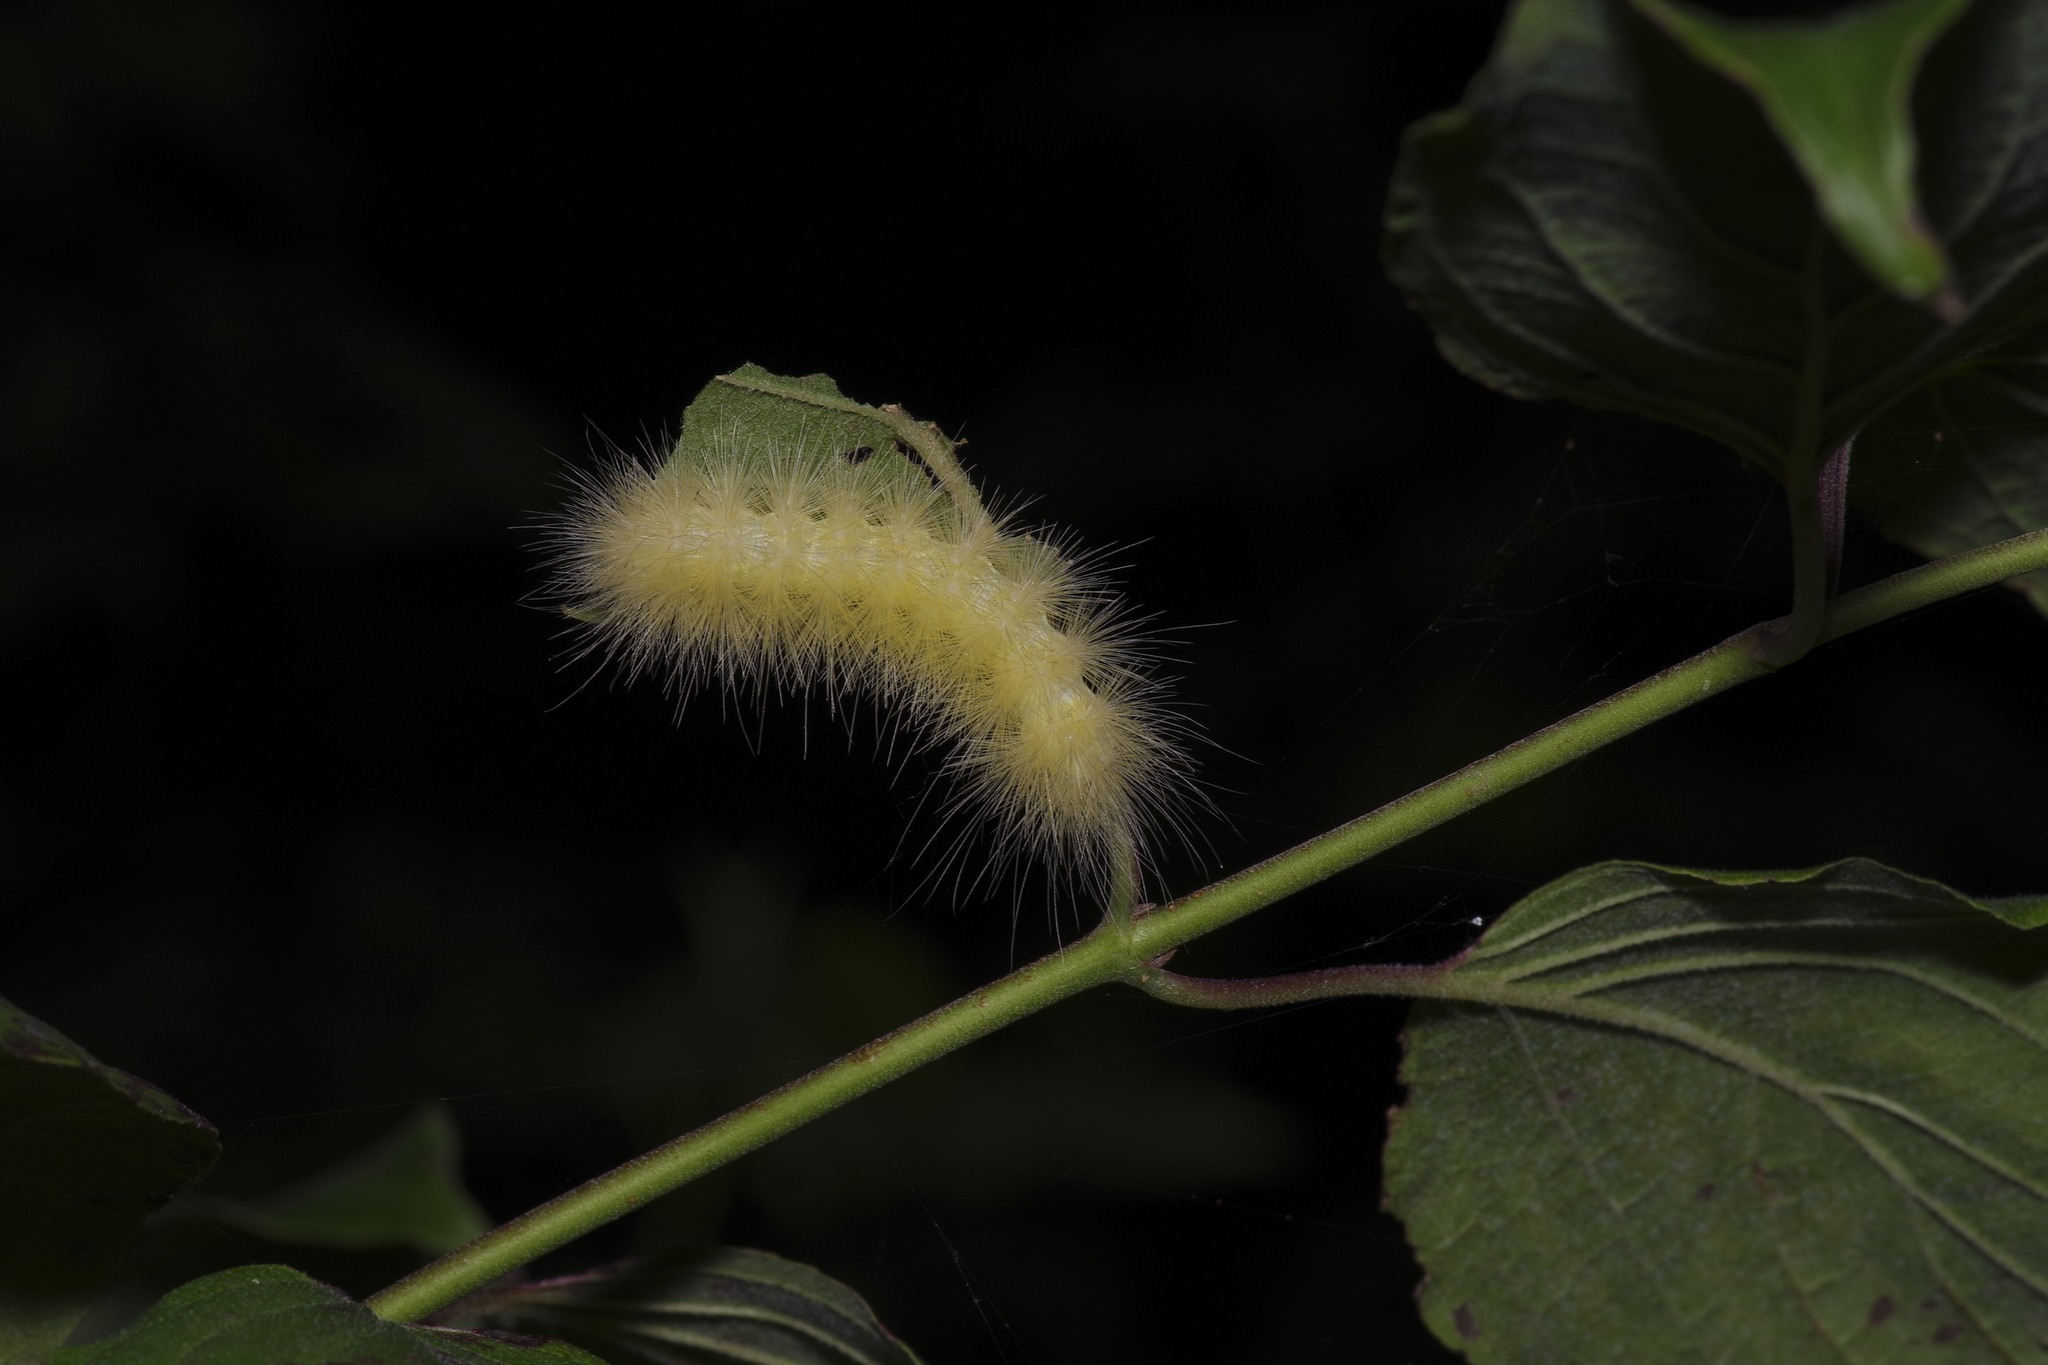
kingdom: Animalia
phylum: Arthropoda
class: Insecta
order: Lepidoptera
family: Erebidae
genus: Spilosoma
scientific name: Spilosoma virginica
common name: Virginia tiger moth
